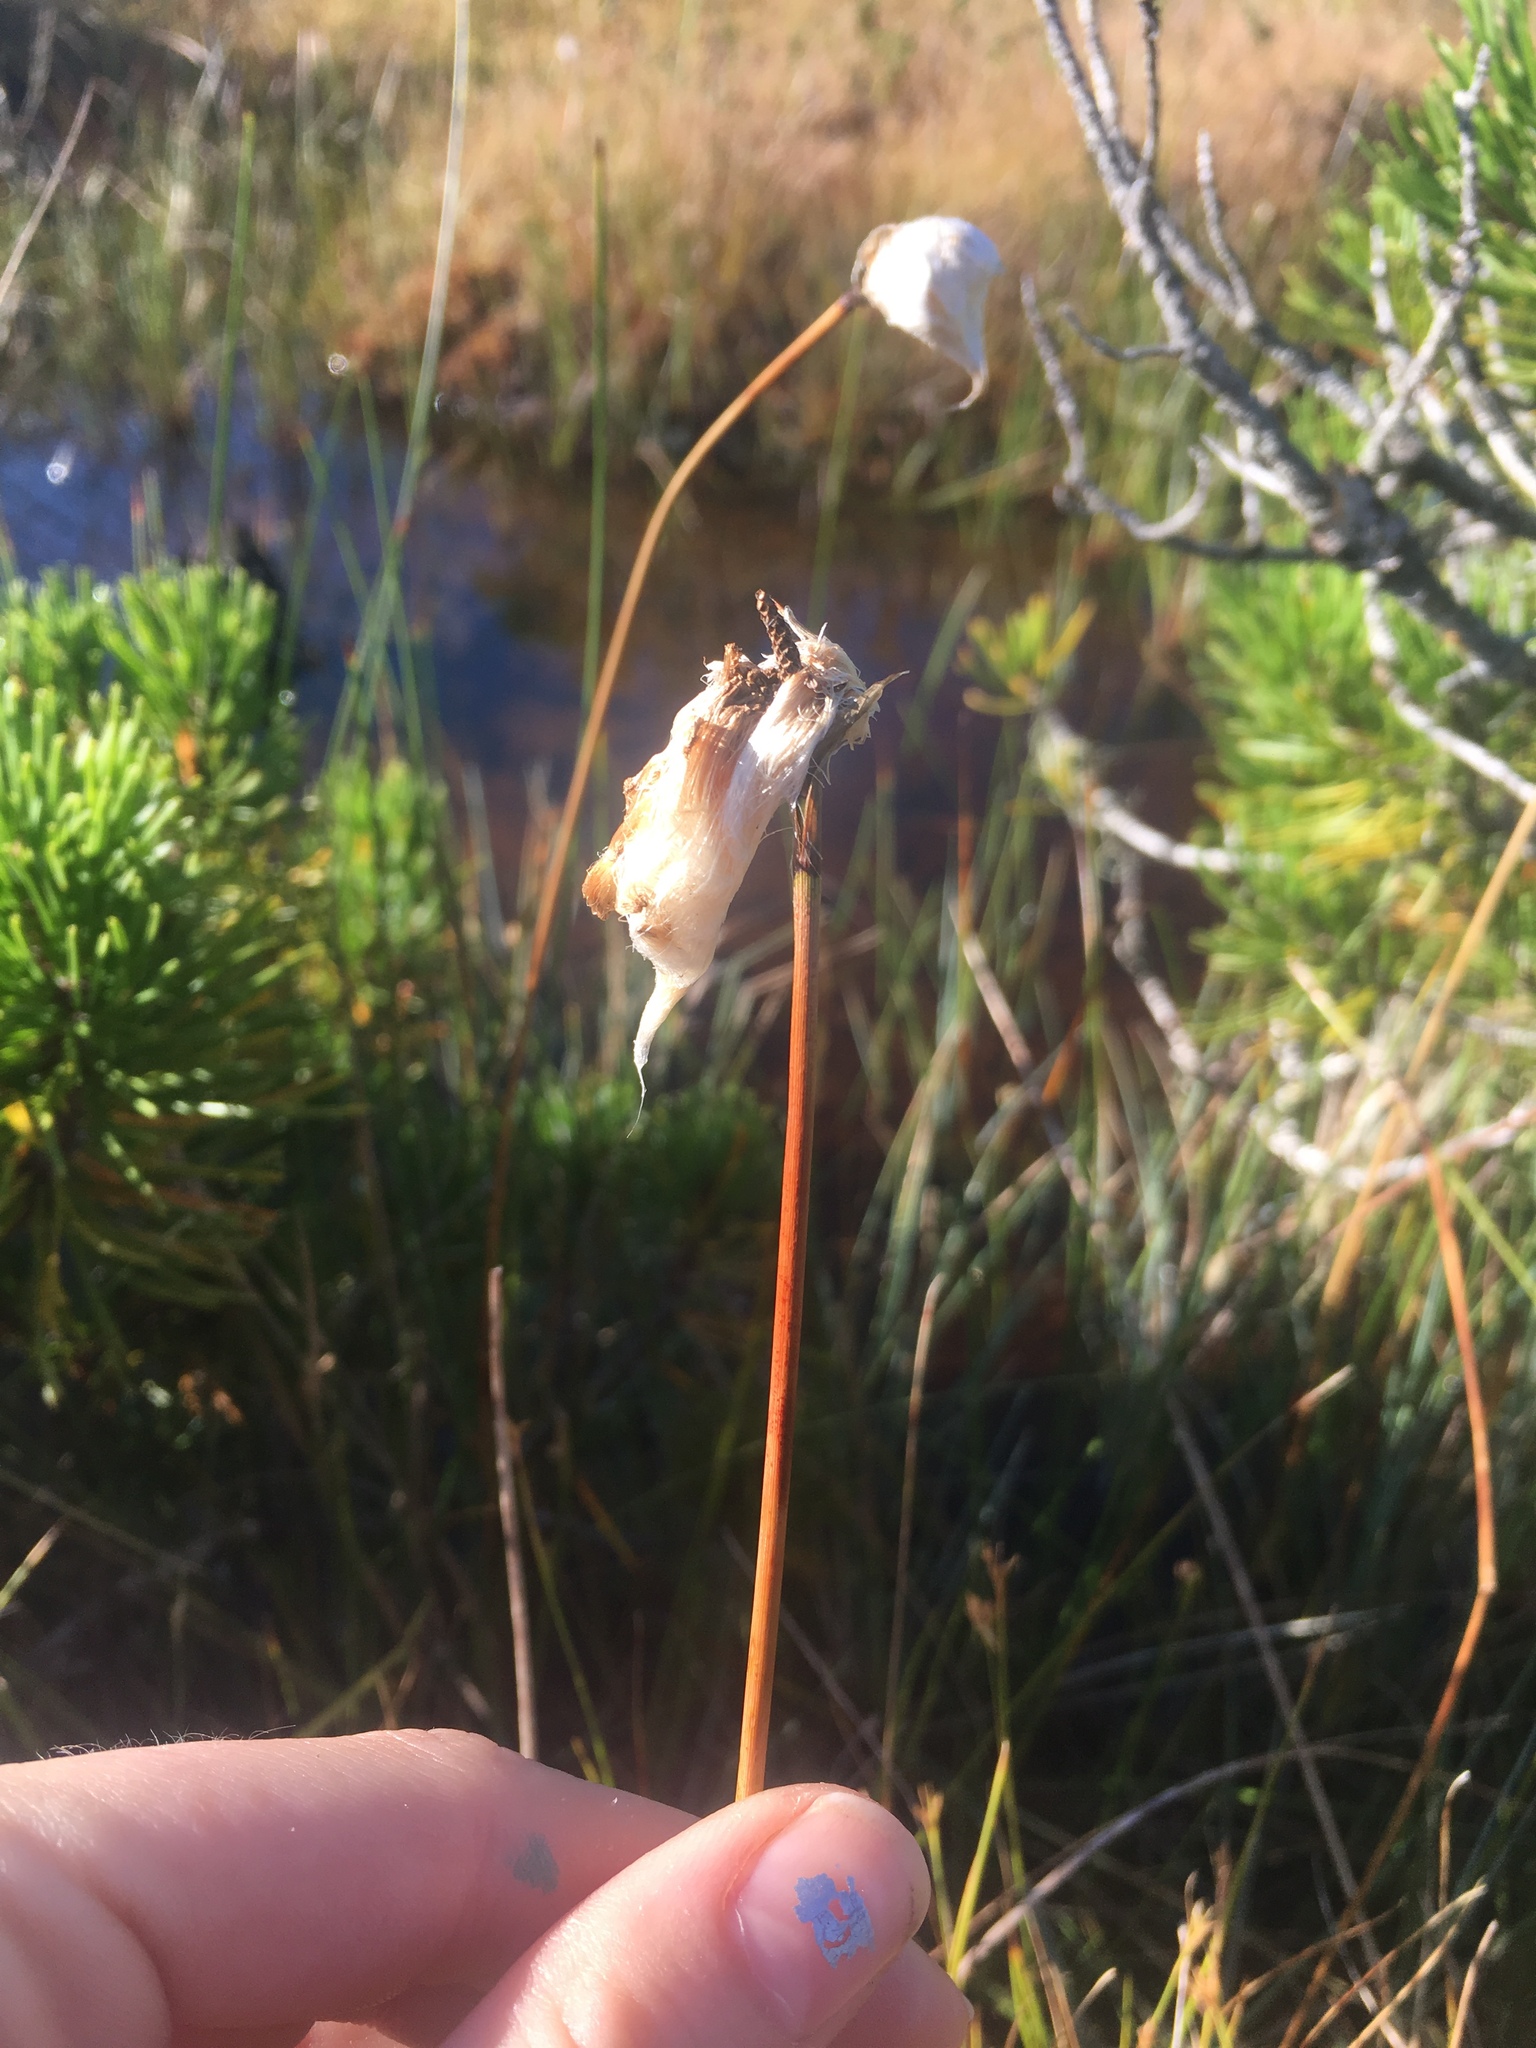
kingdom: Plantae
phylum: Tracheophyta
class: Liliopsida
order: Poales
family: Cyperaceae
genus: Eriophorum
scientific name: Eriophorum angustifolium
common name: Common cottongrass
